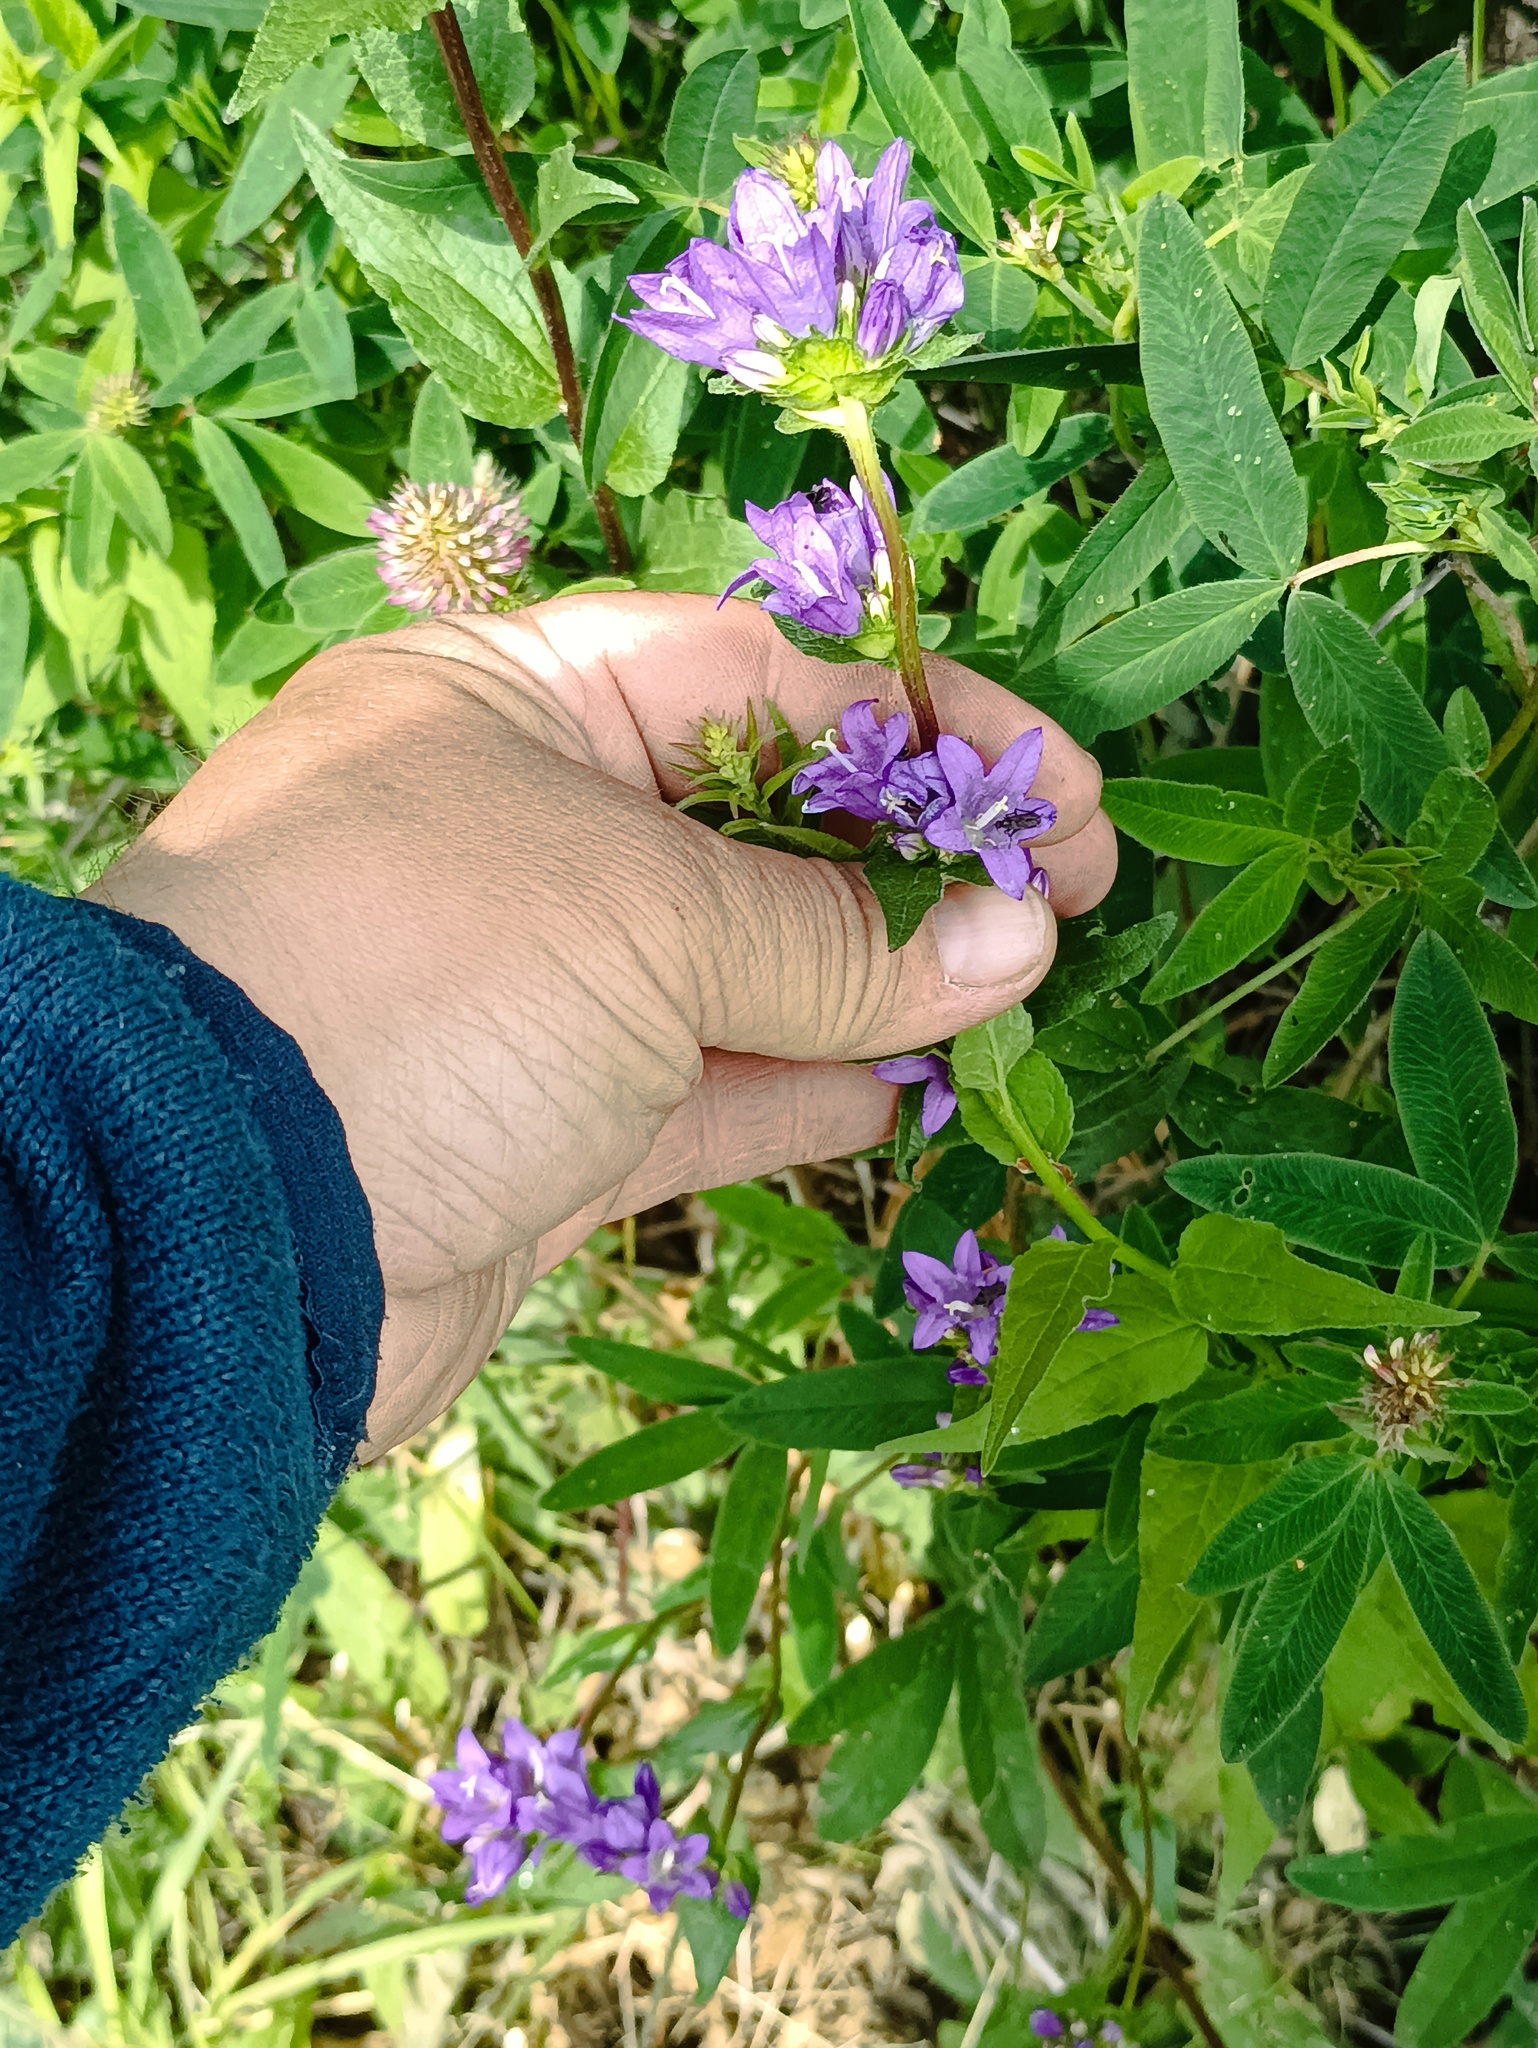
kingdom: Plantae
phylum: Tracheophyta
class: Magnoliopsida
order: Asterales
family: Campanulaceae
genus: Campanula
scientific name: Campanula glomerata
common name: Clustered bellflower
